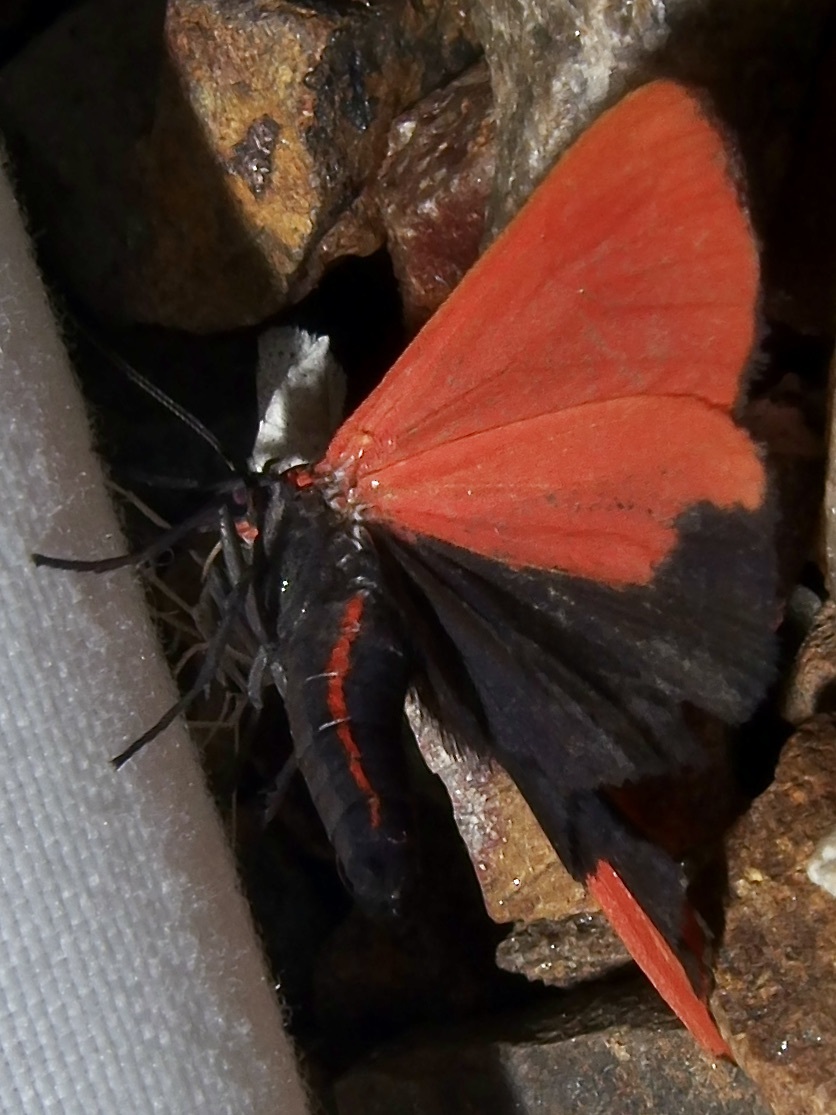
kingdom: Animalia
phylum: Arthropoda
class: Insecta
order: Lepidoptera
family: Erebidae
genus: Virbia
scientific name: Virbia ostenta
